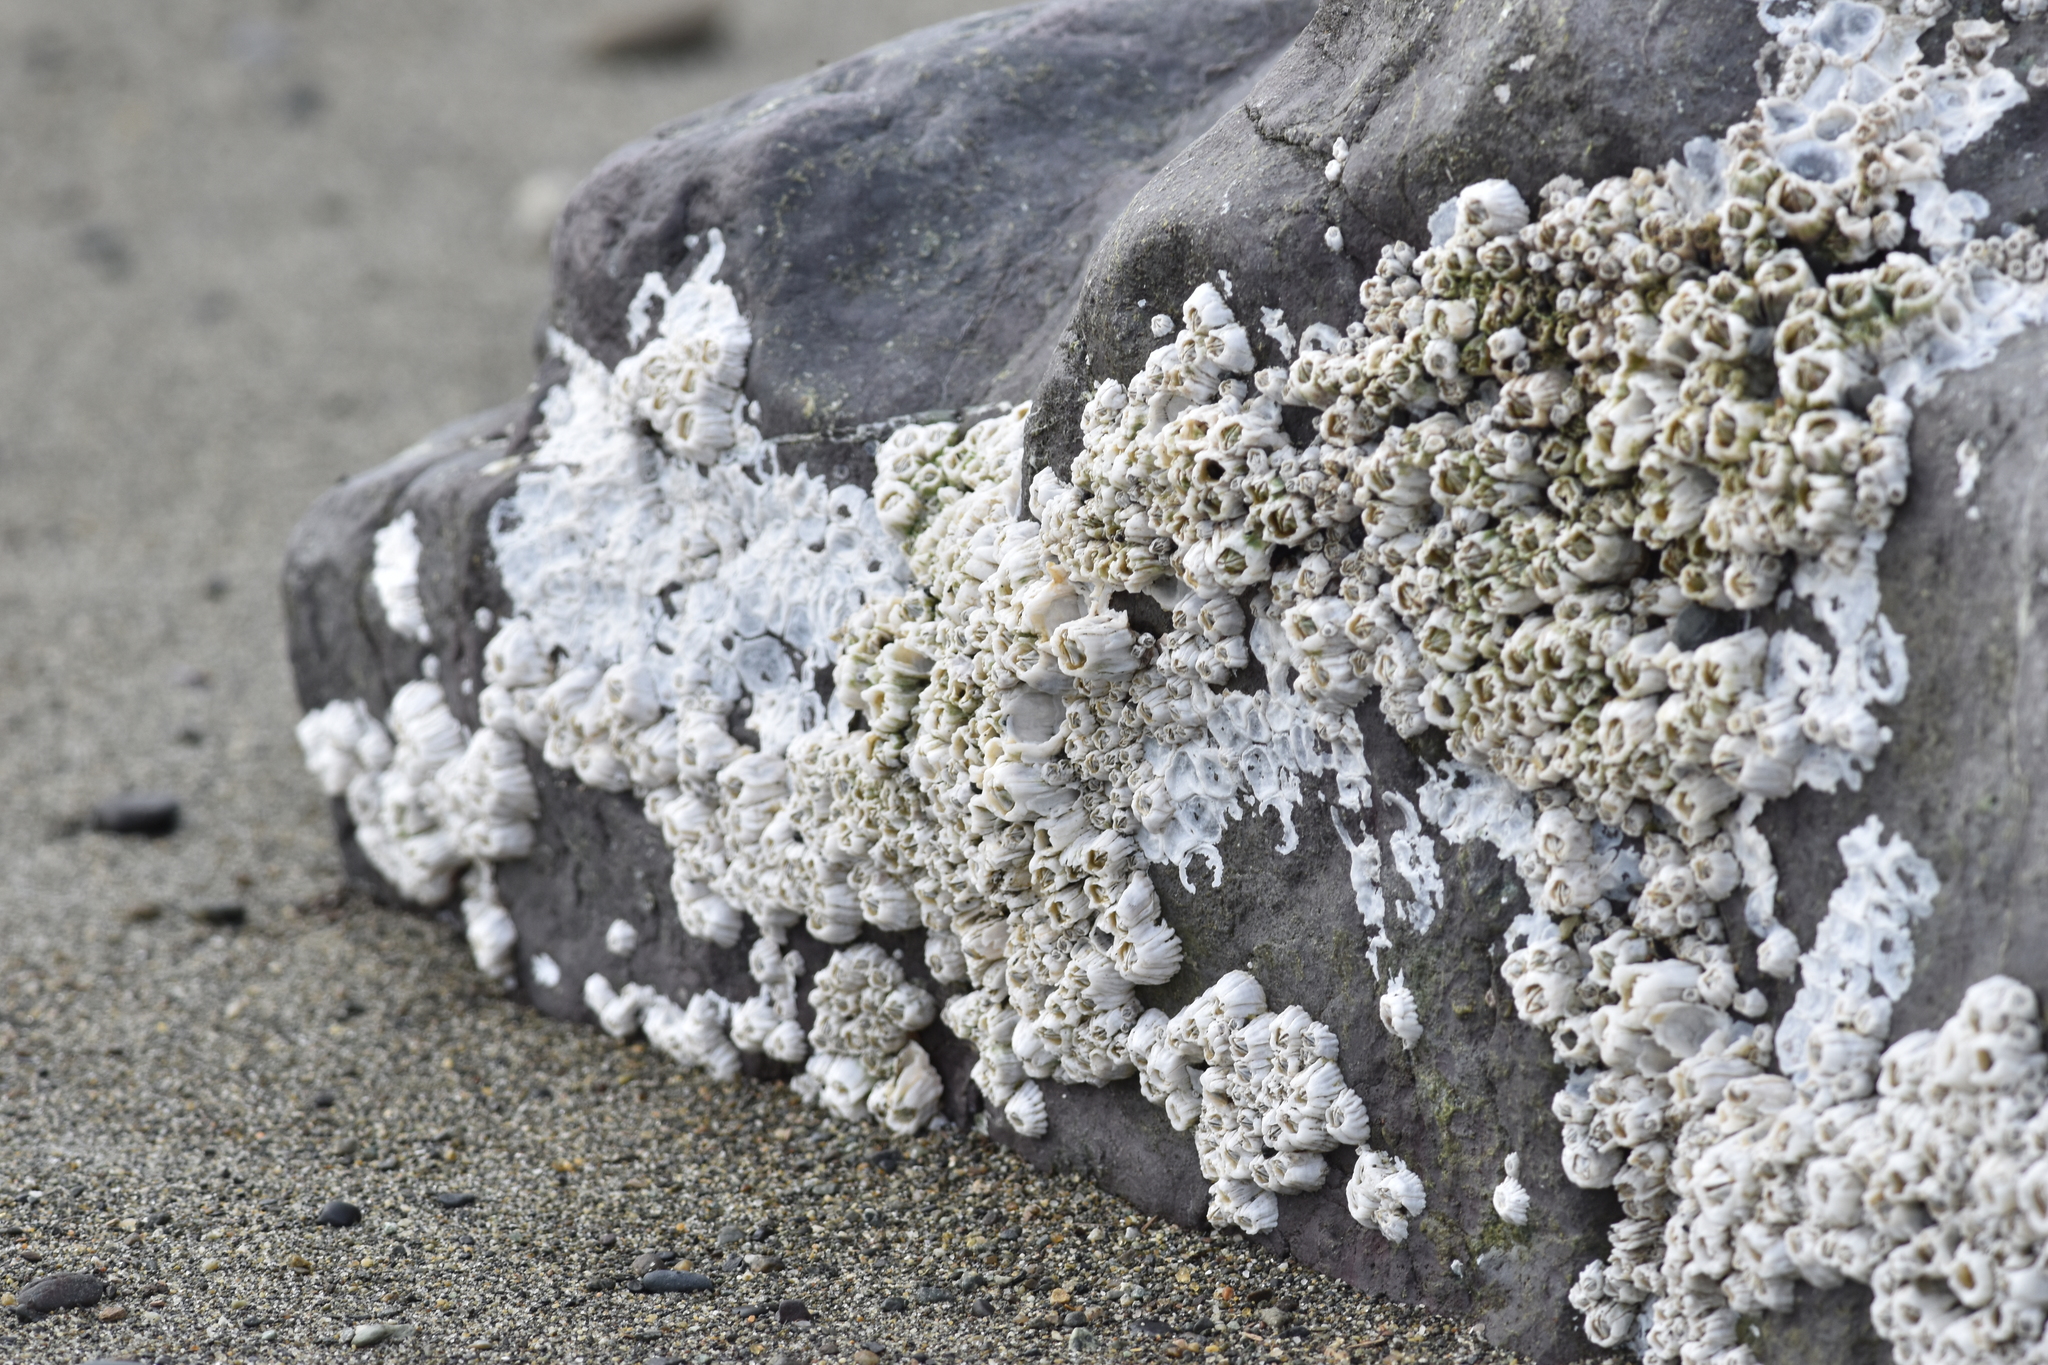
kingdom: Animalia
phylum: Arthropoda
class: Maxillopoda
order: Sessilia
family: Balanidae
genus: Balanus
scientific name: Balanus glandula
